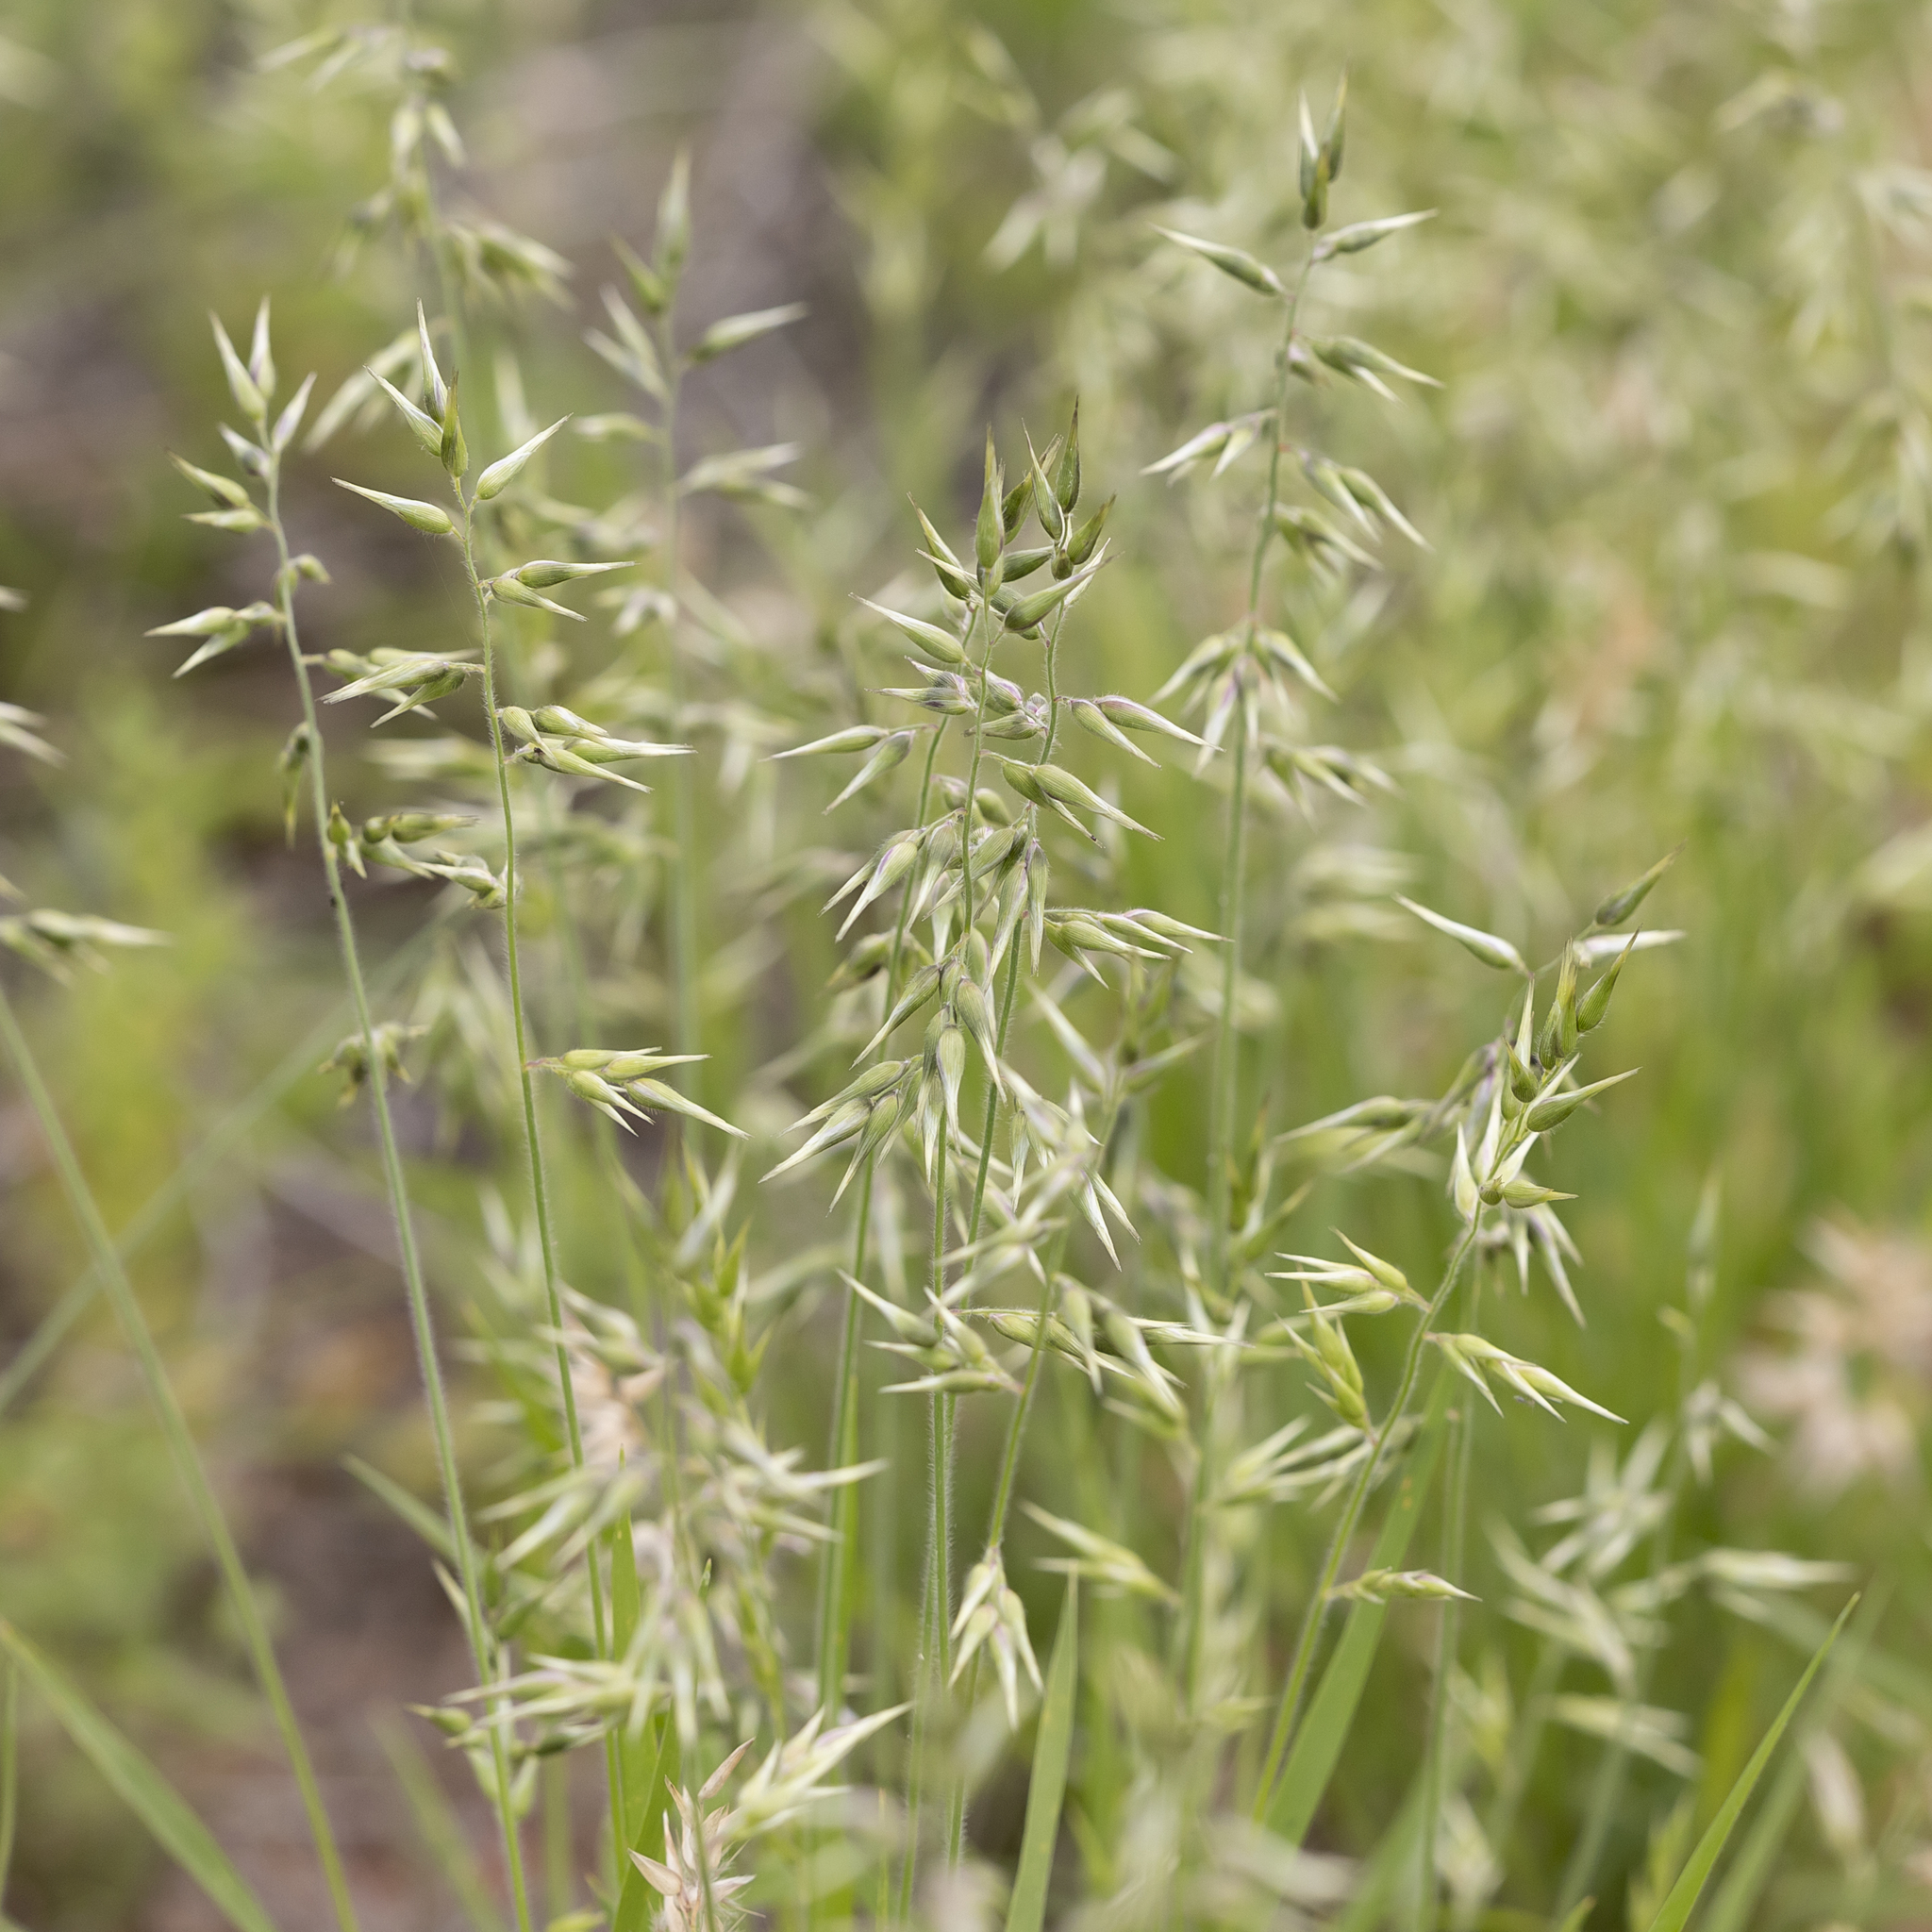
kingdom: Plantae
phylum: Tracheophyta
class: Liliopsida
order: Poales
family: Poaceae
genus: Enneapogon
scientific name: Enneapogon avenaceus
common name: Hairy oat grass
